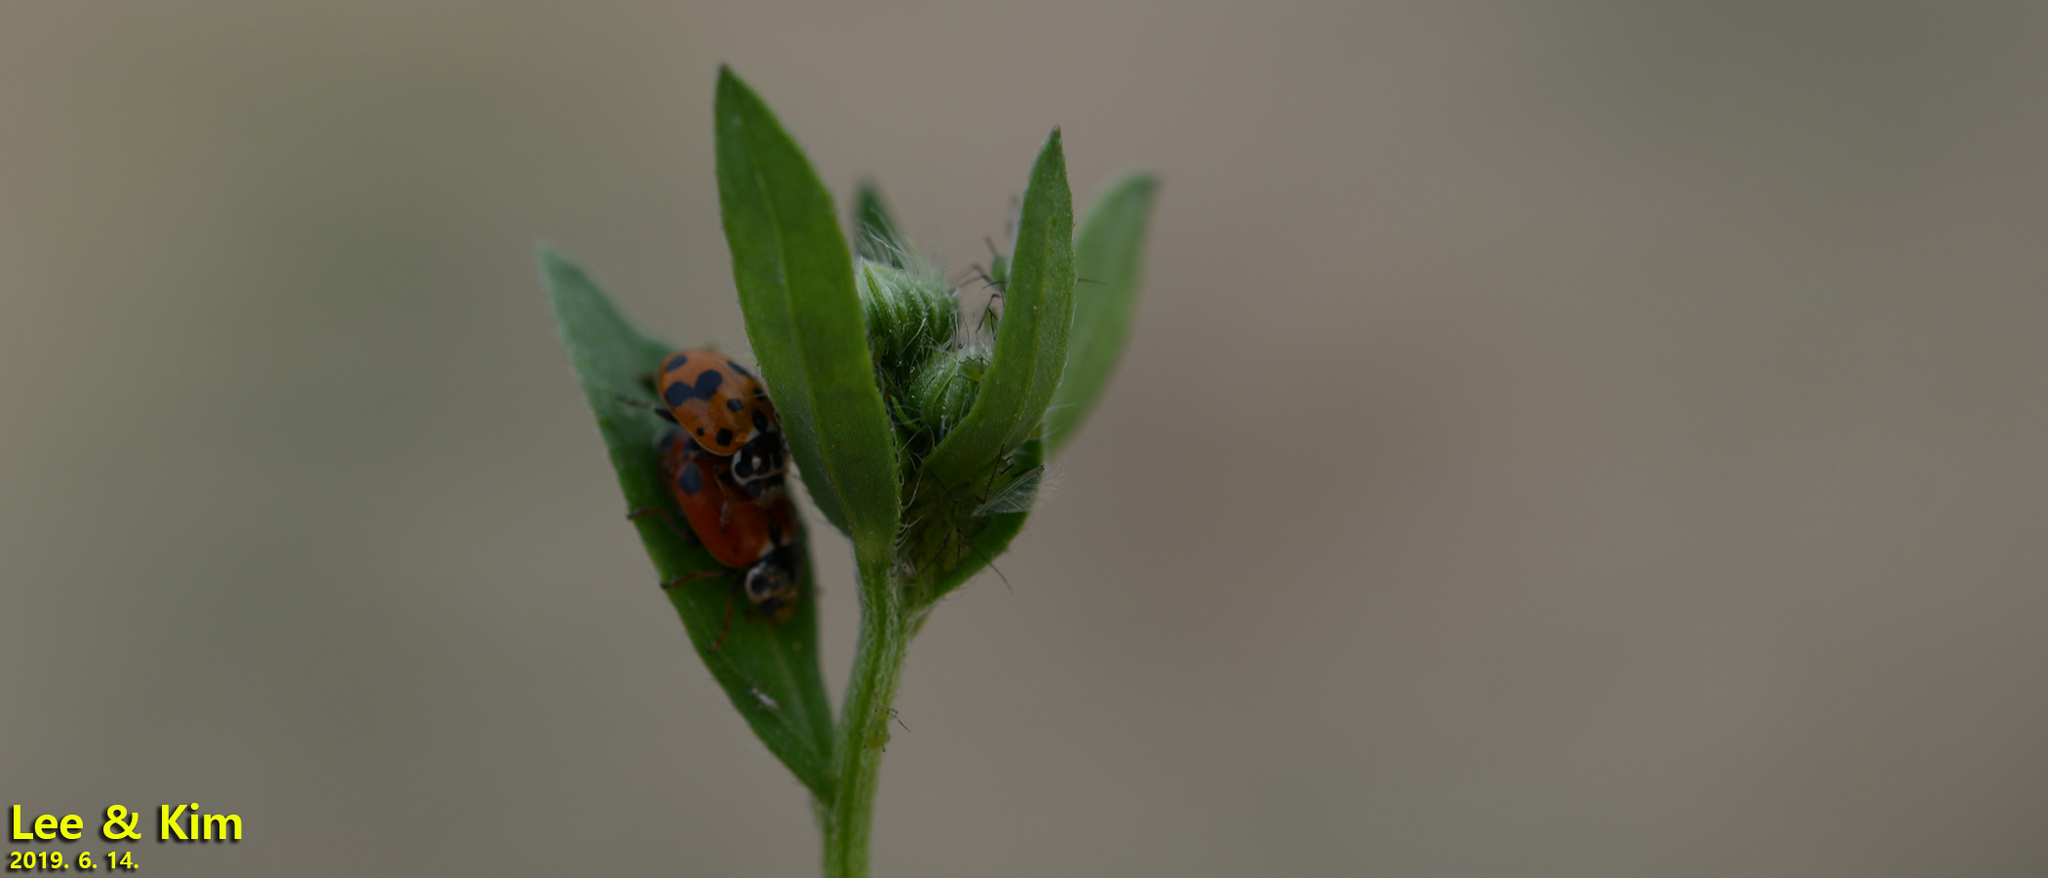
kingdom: Animalia
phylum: Arthropoda
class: Insecta
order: Coleoptera
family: Coccinellidae
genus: Hippodamia
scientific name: Hippodamia variegata
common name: Ladybird beetle
